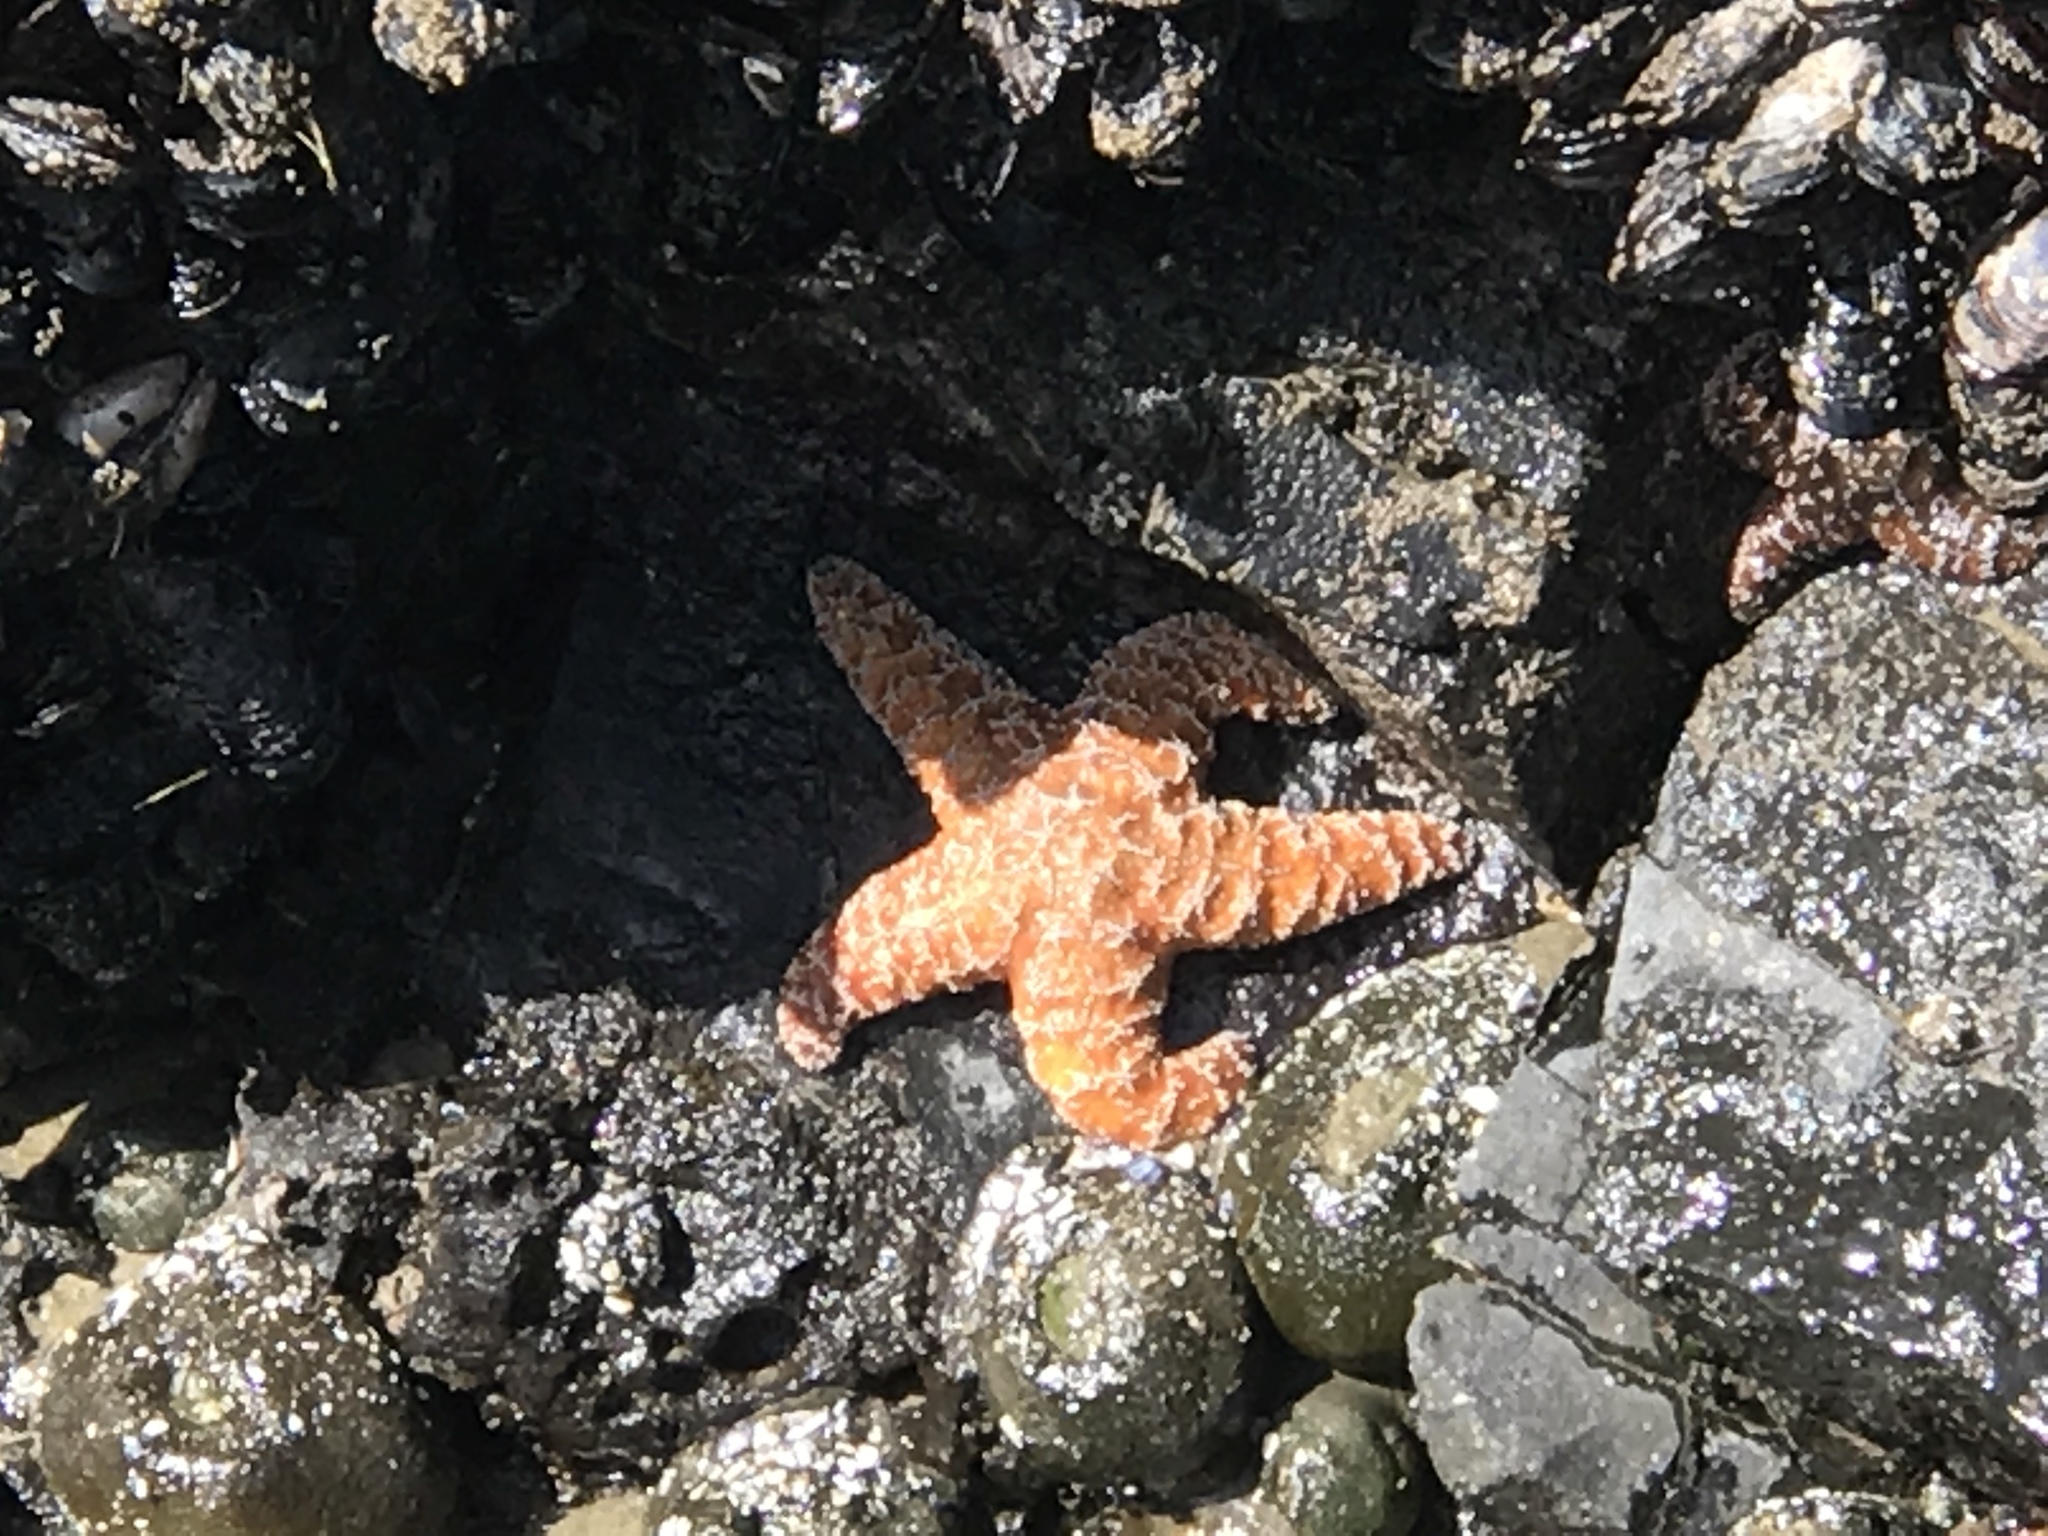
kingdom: Animalia
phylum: Echinodermata
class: Asteroidea
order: Forcipulatida
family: Asteriidae
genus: Pisaster
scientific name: Pisaster ochraceus
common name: Ochre stars
